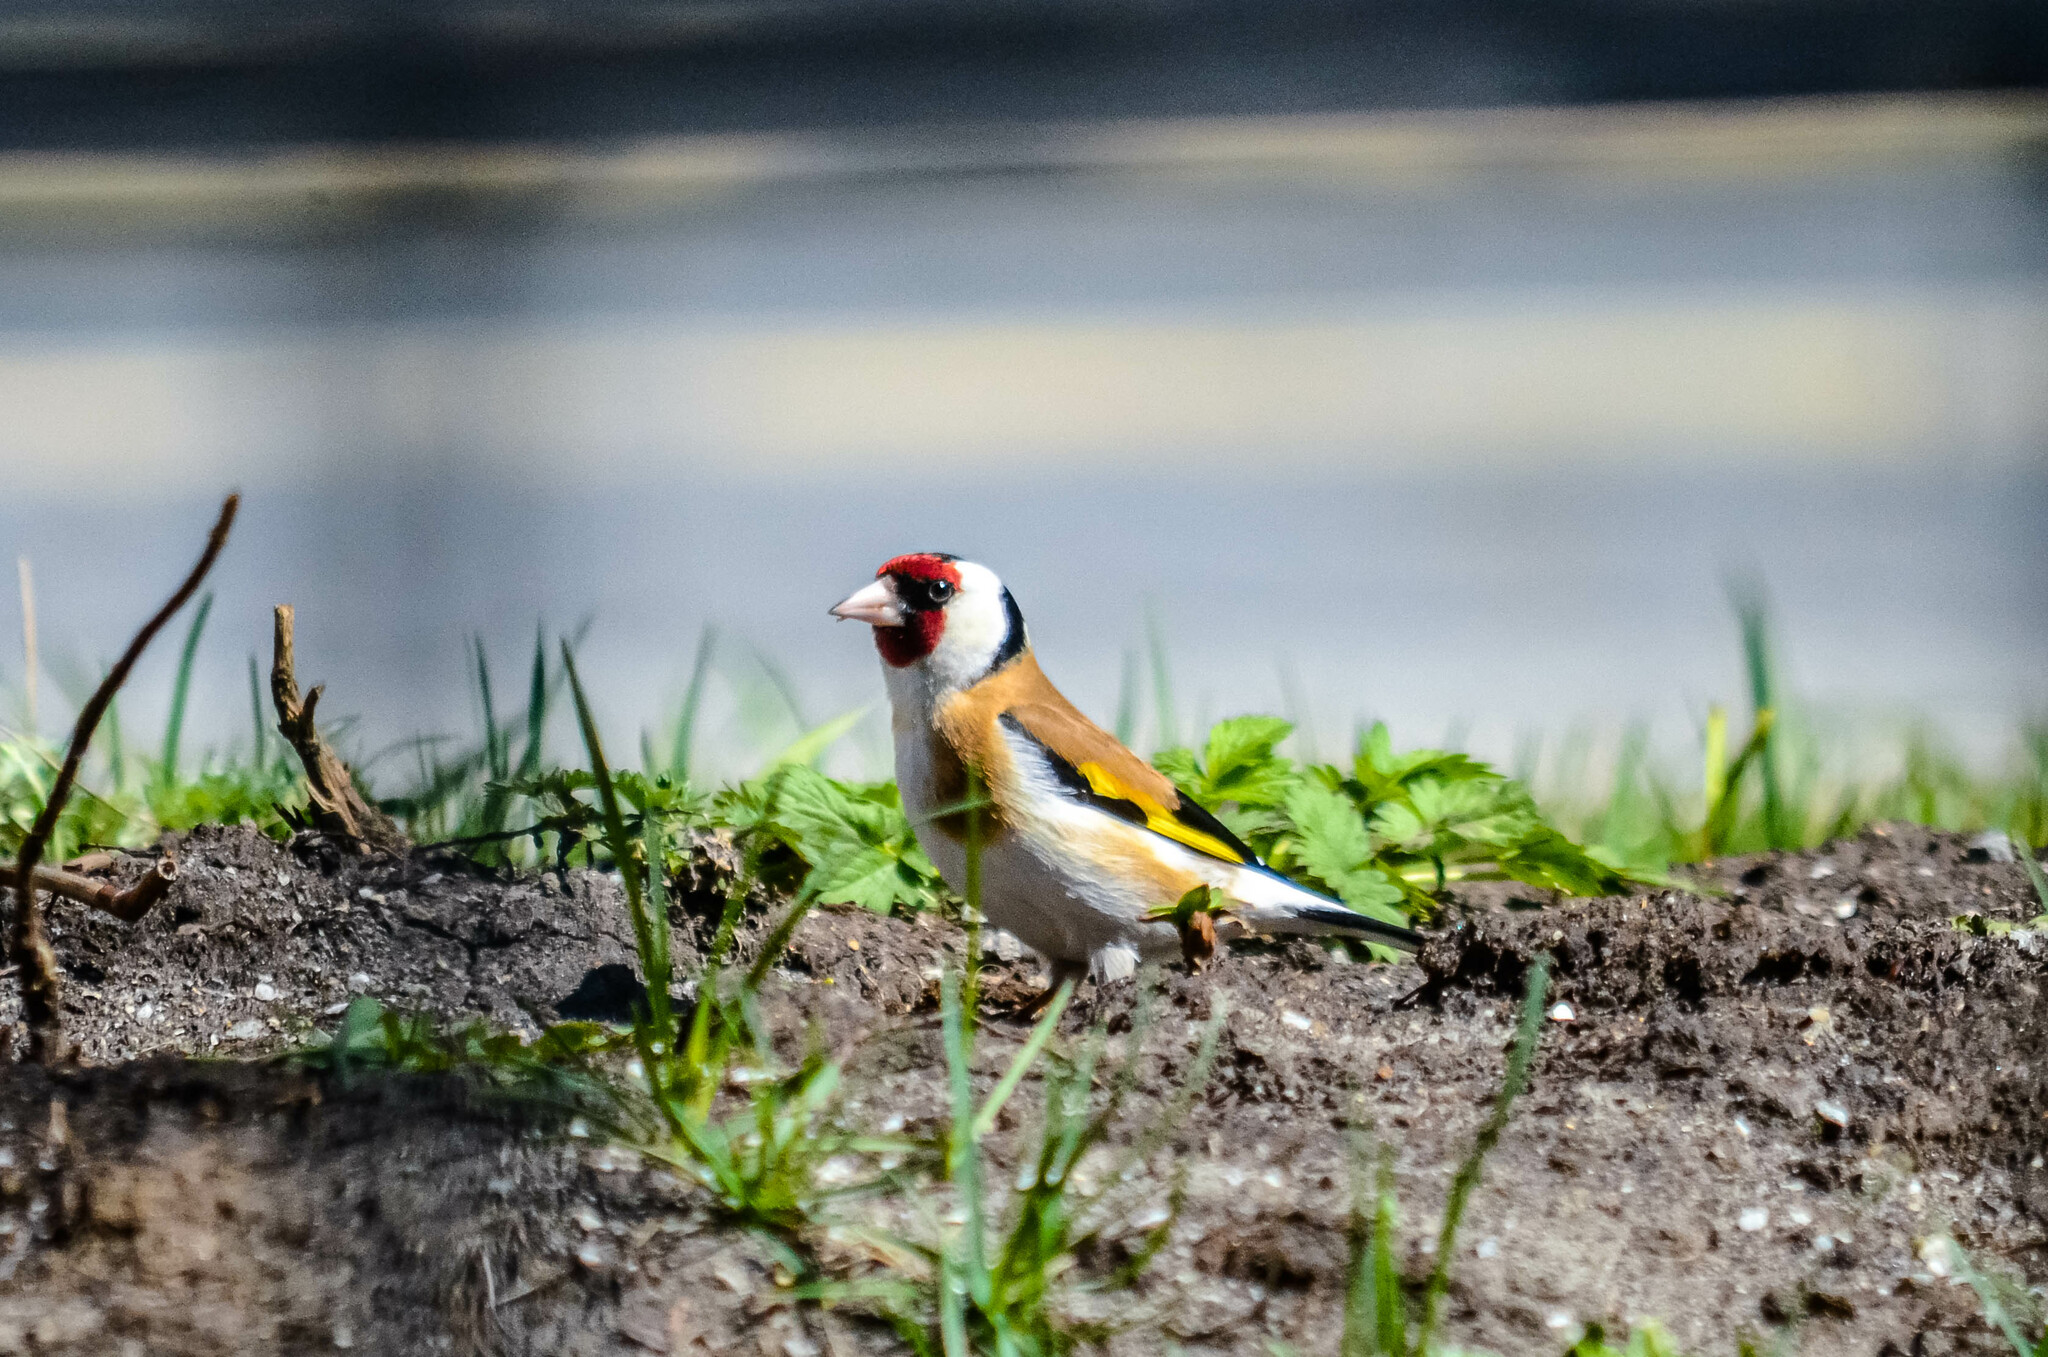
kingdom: Animalia
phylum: Chordata
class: Aves
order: Passeriformes
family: Fringillidae
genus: Carduelis
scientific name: Carduelis carduelis
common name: European goldfinch
